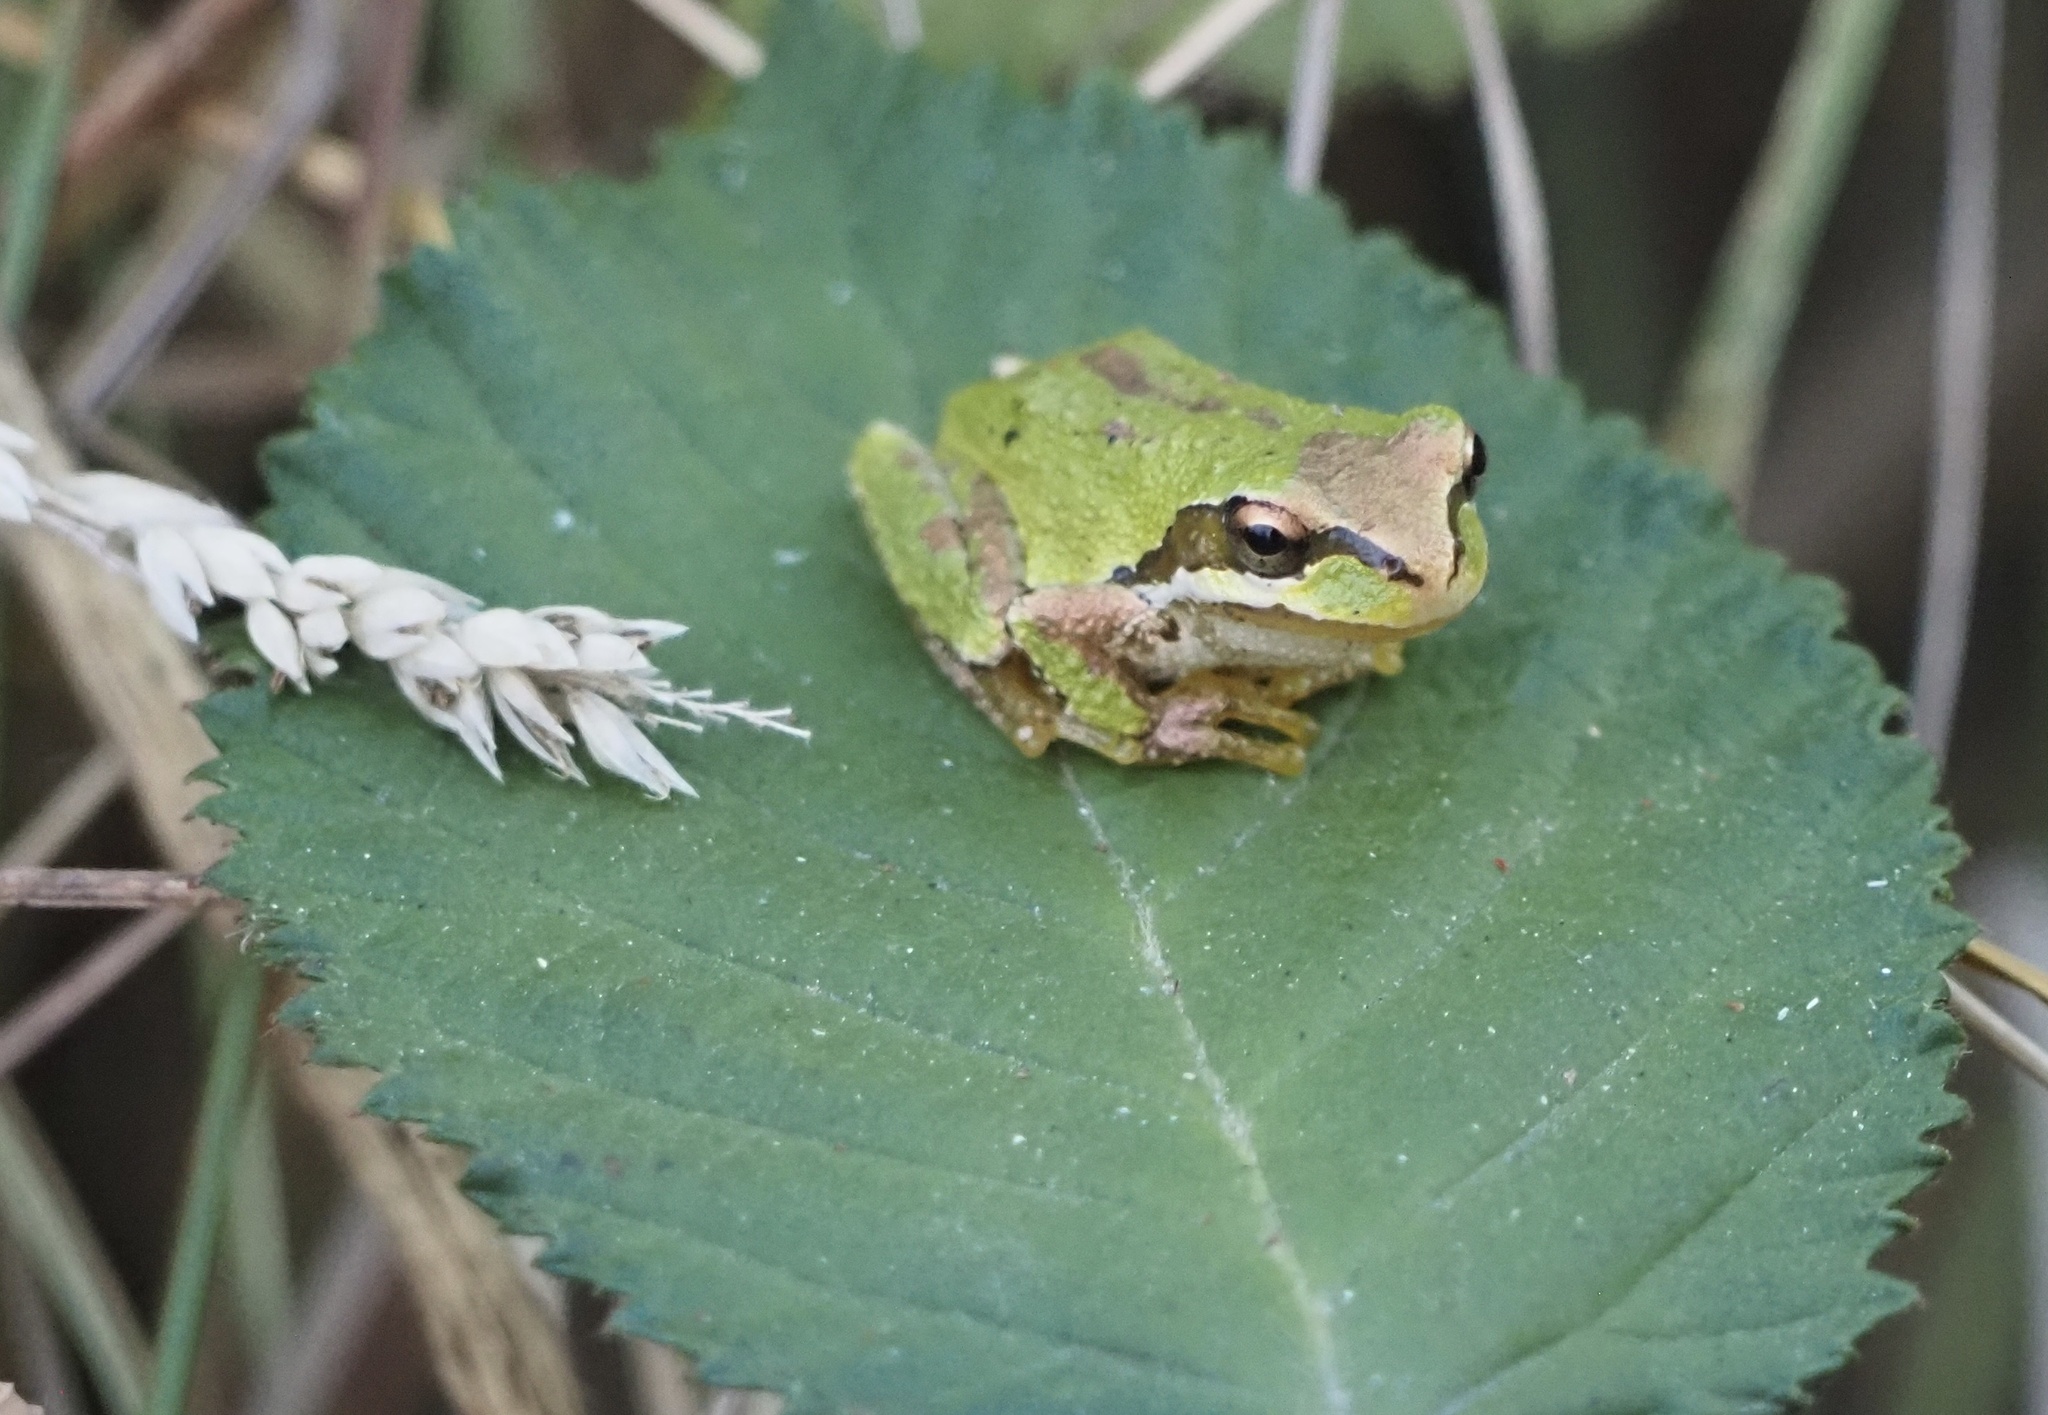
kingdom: Animalia
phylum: Chordata
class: Amphibia
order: Anura
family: Hylidae
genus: Pseudacris
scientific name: Pseudacris regilla
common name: Pacific chorus frog
